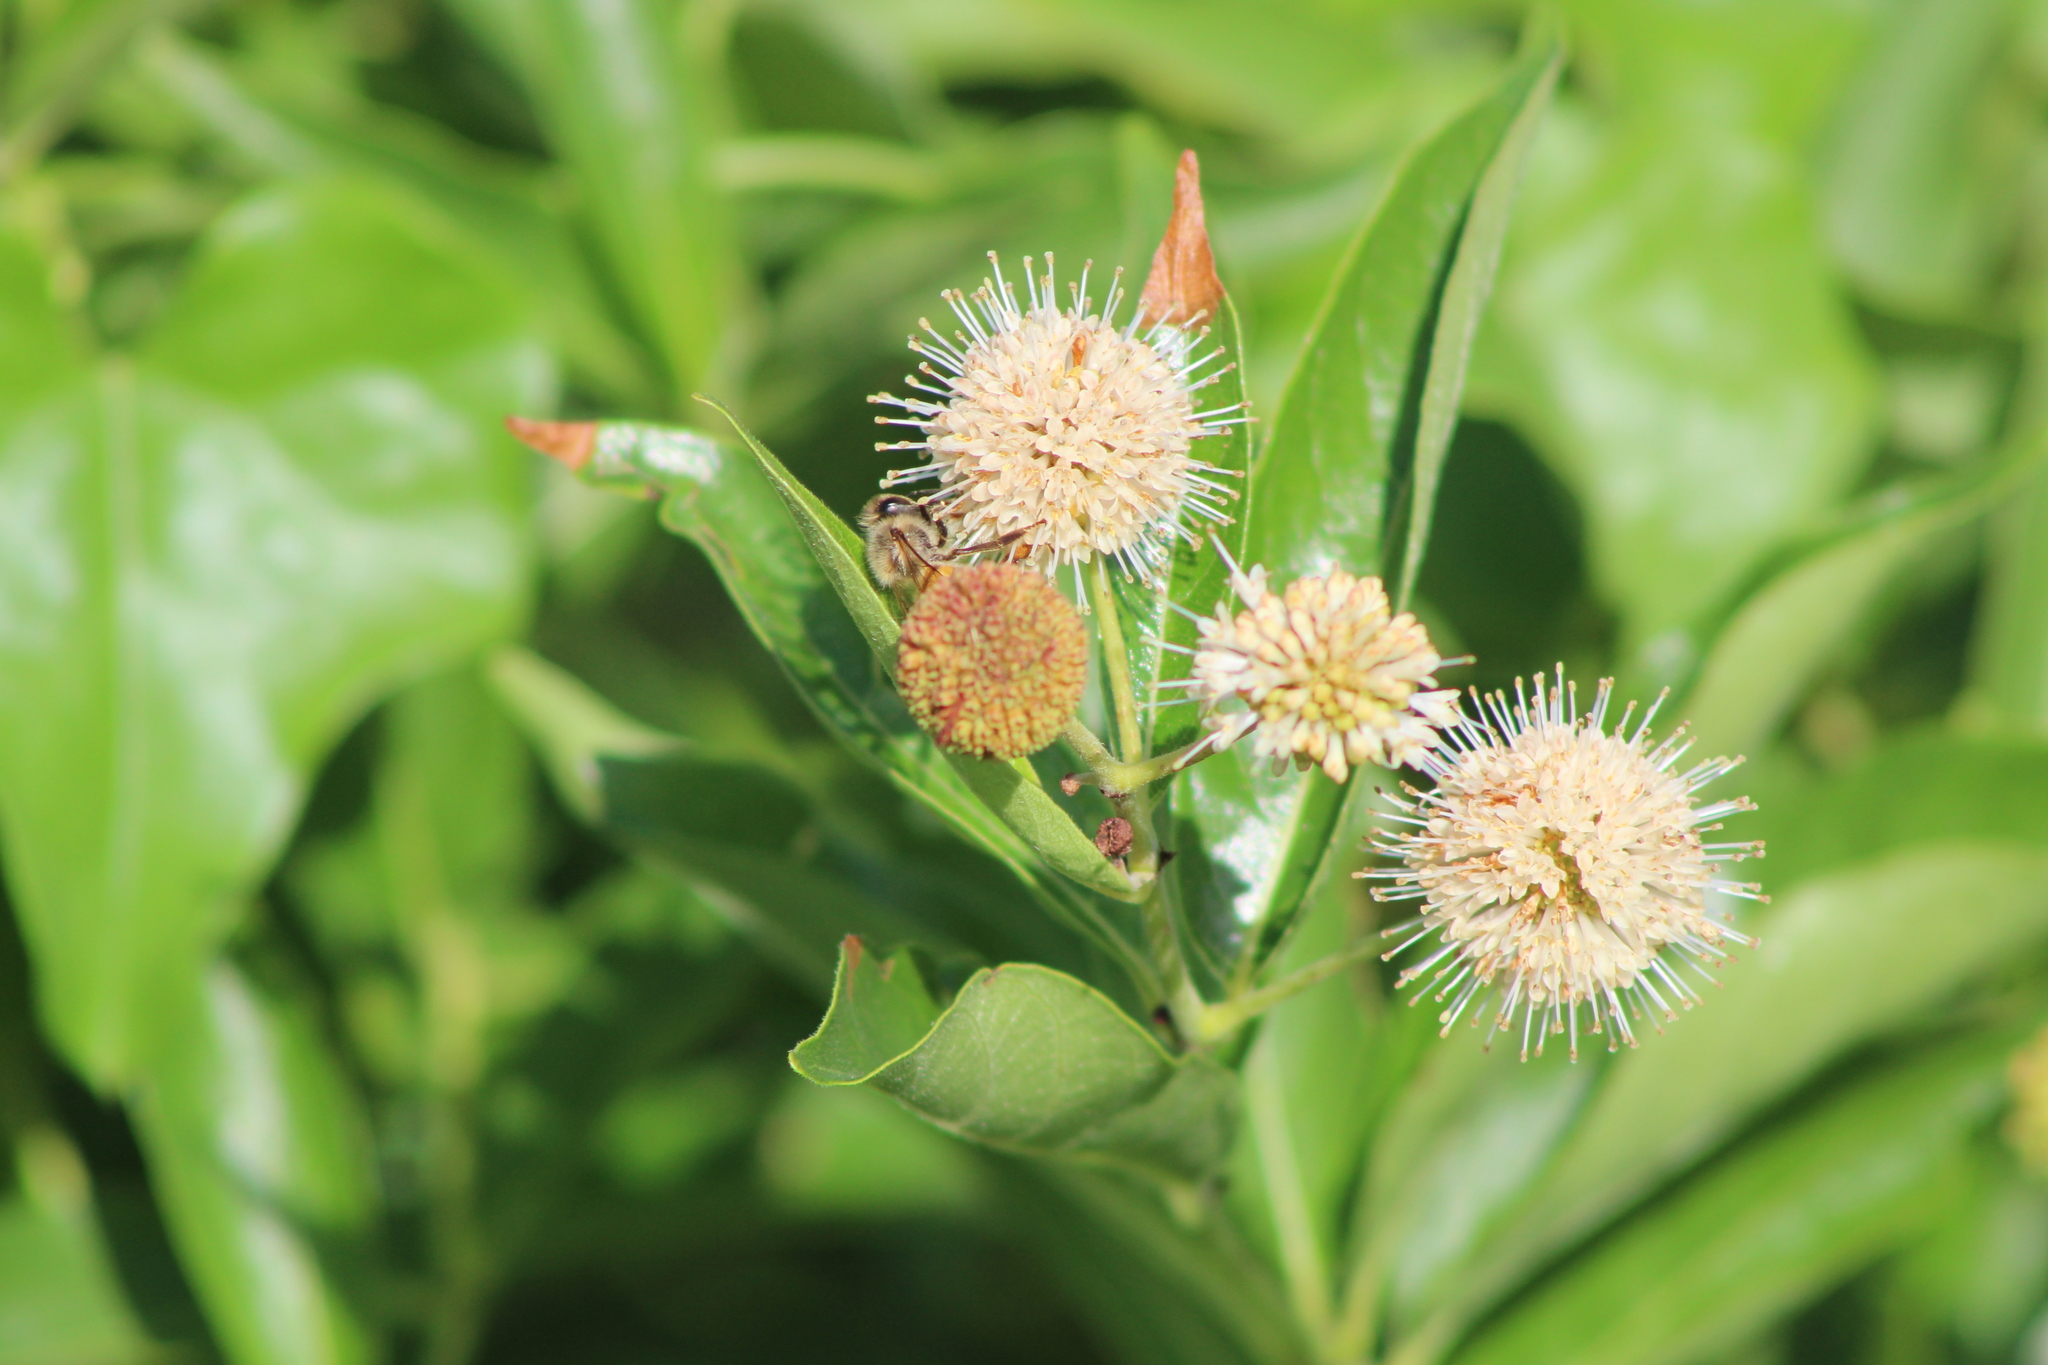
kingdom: Plantae
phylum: Tracheophyta
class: Magnoliopsida
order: Gentianales
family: Rubiaceae
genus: Cephalanthus
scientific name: Cephalanthus occidentalis
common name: Button-willow
